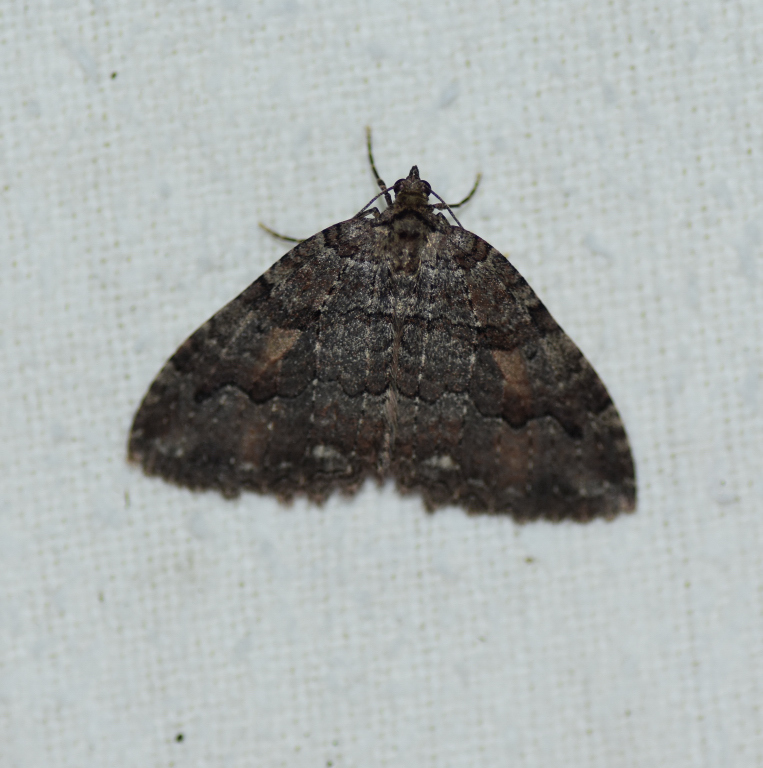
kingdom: Animalia
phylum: Arthropoda
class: Insecta
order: Lepidoptera
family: Geometridae
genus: Triphosa
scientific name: Triphosa haesitata
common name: Tissue moth
